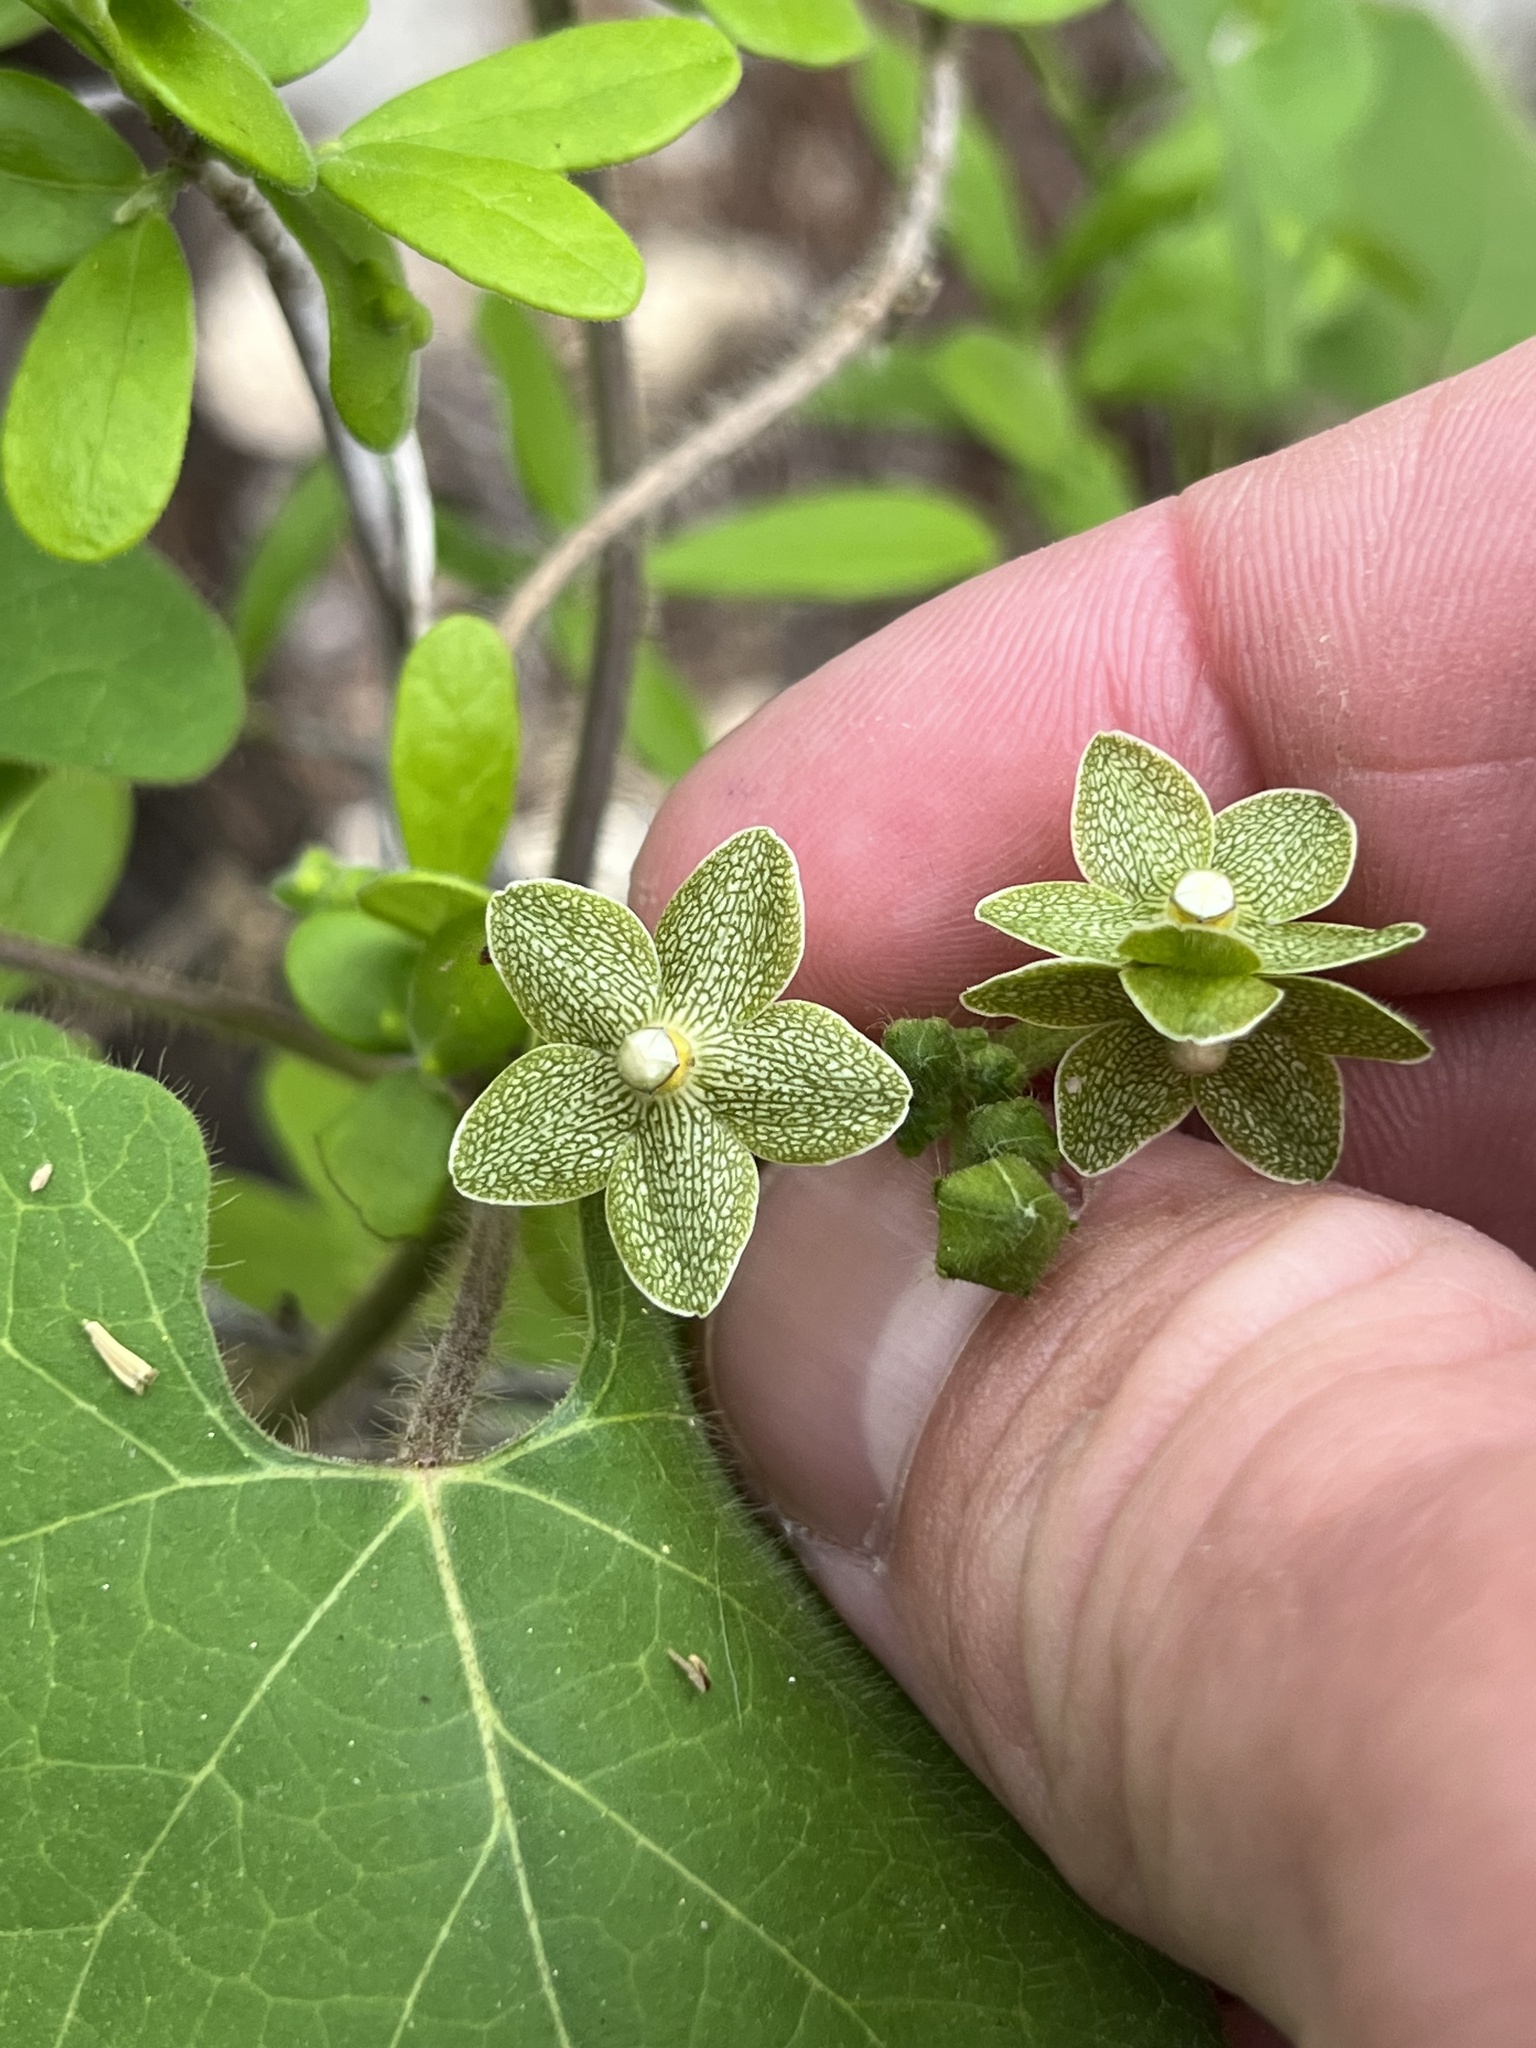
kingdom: Plantae
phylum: Tracheophyta
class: Magnoliopsida
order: Gentianales
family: Apocynaceae
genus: Dictyanthus
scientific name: Dictyanthus reticulatus
